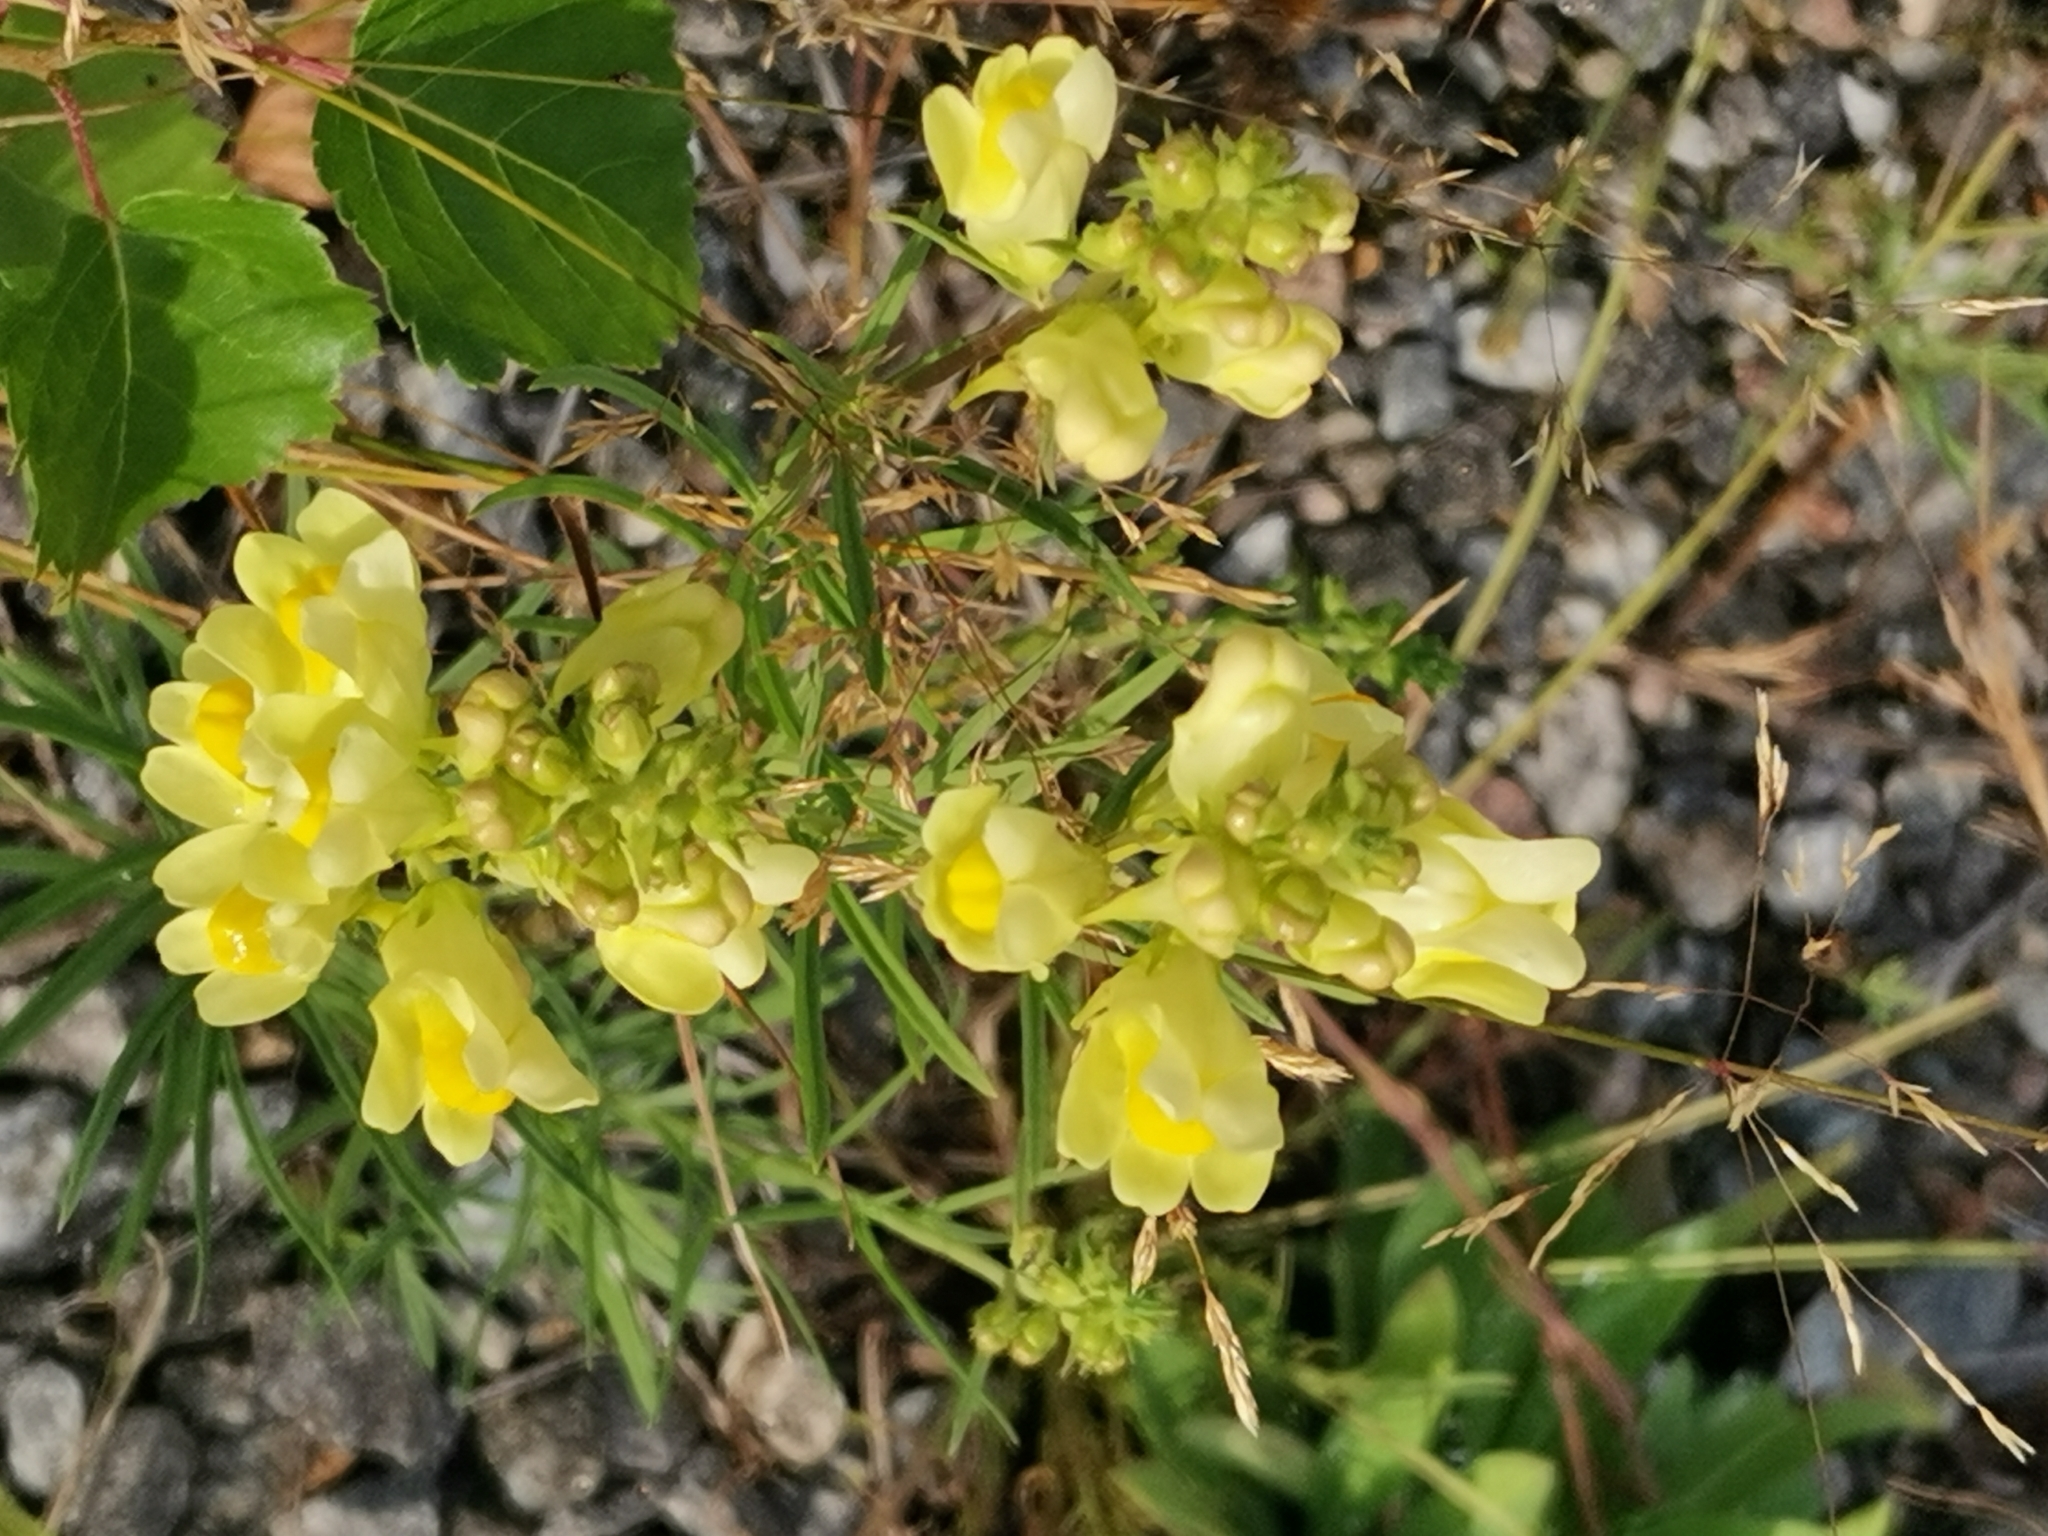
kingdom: Plantae
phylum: Tracheophyta
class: Magnoliopsida
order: Lamiales
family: Plantaginaceae
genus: Linaria
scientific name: Linaria vulgaris
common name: Butter and eggs
